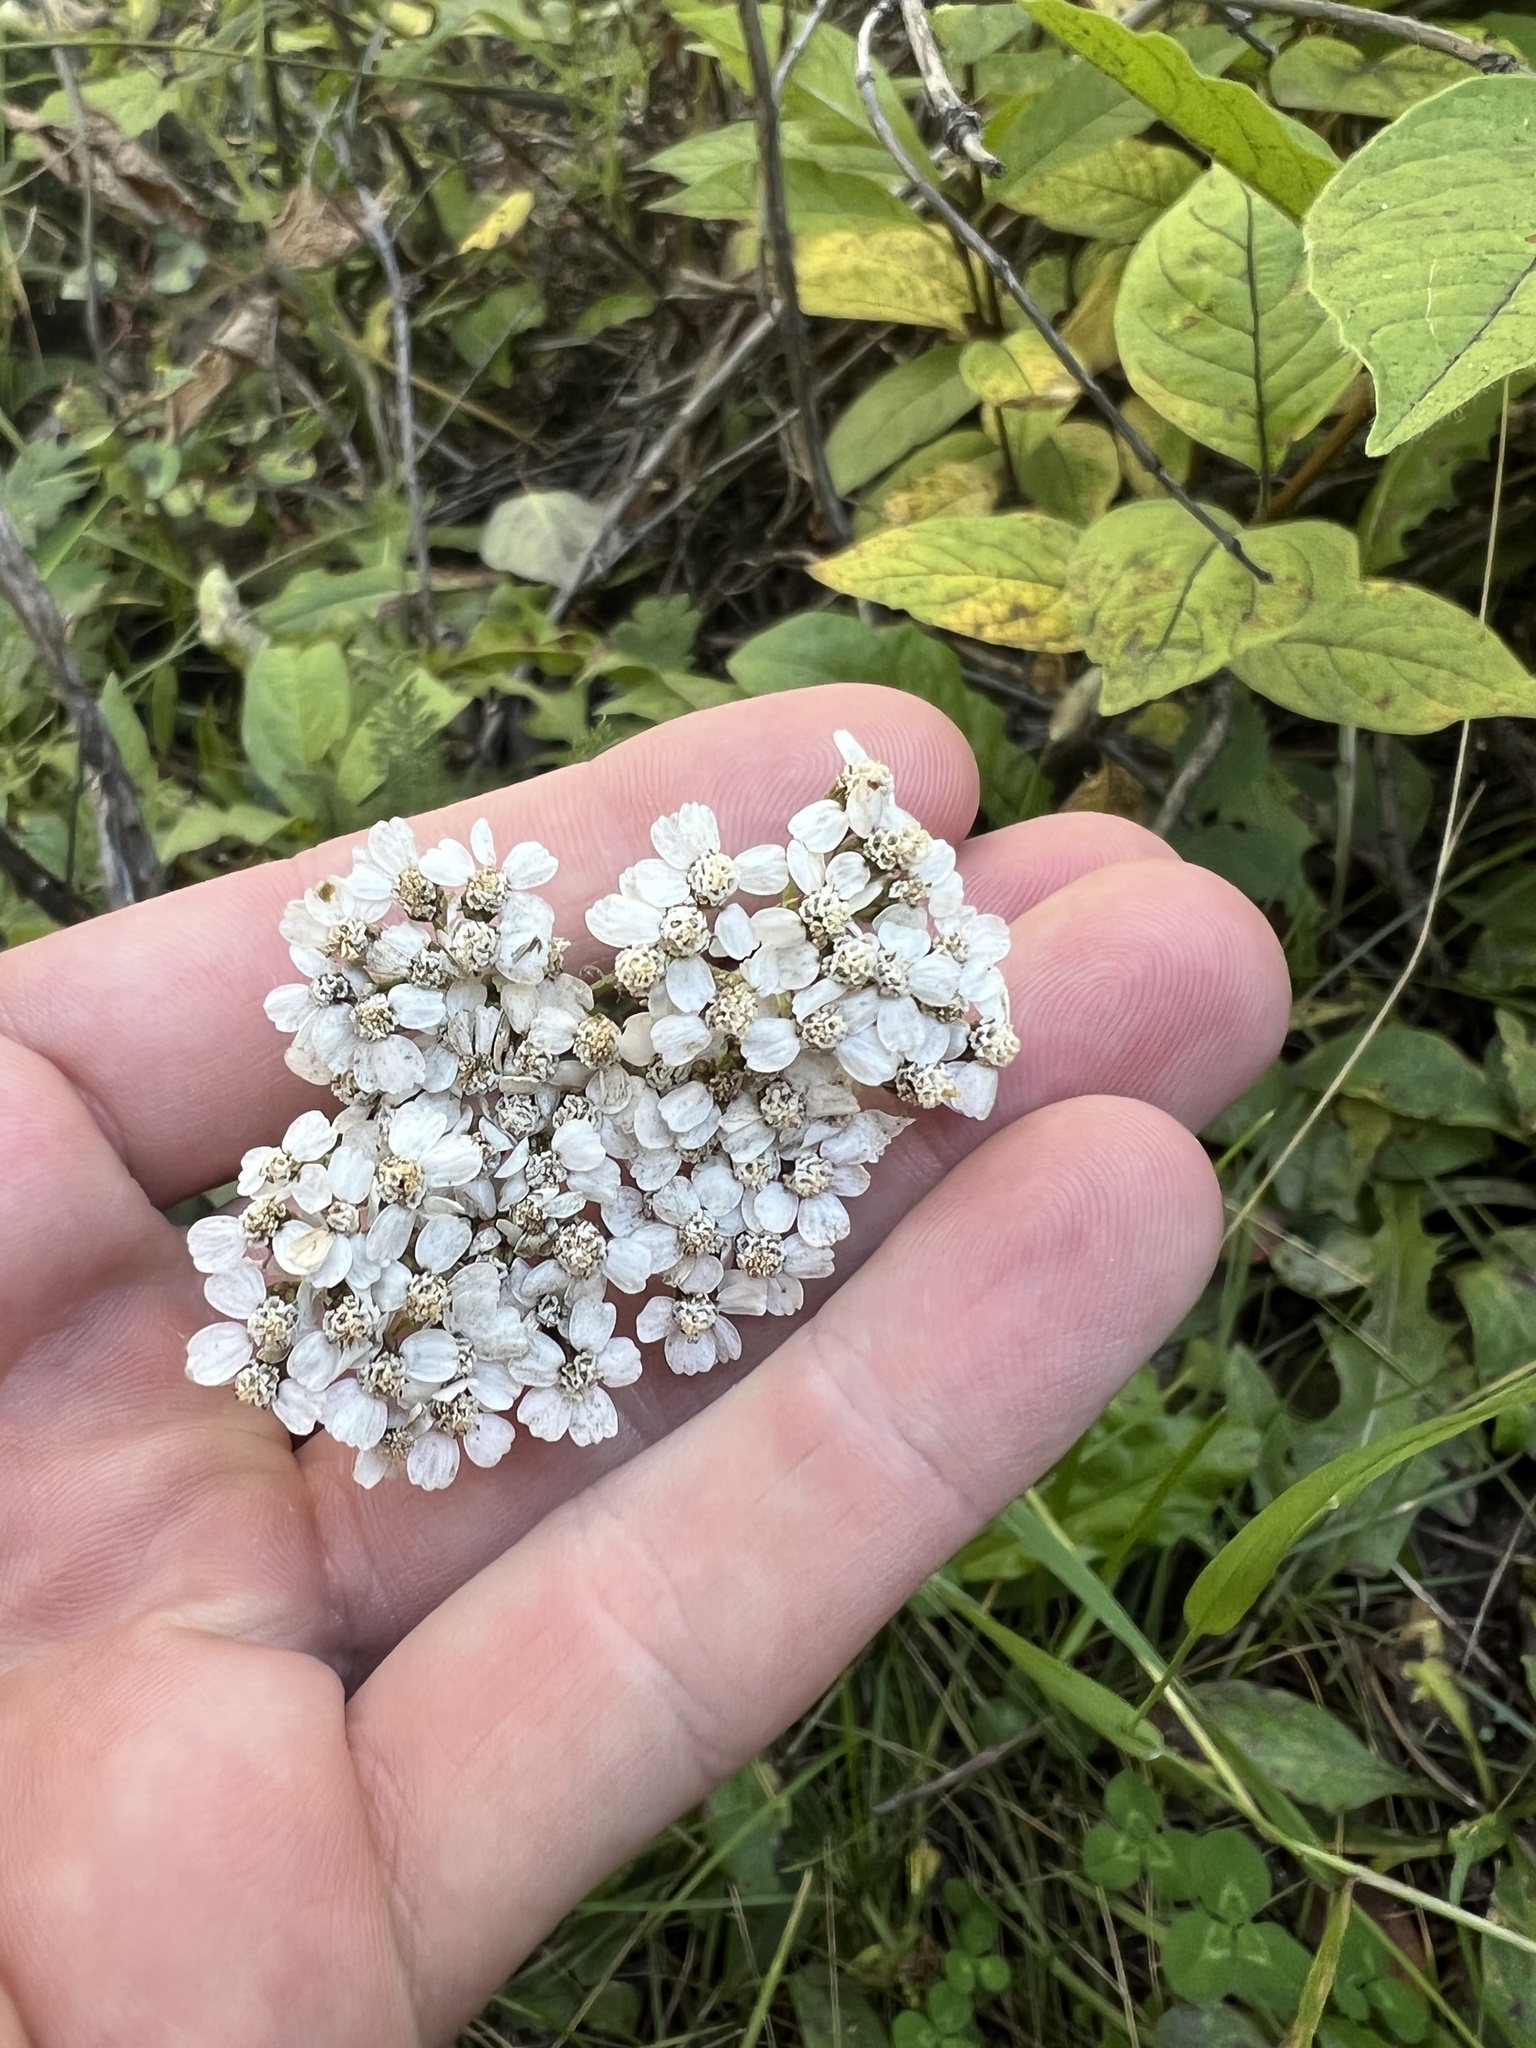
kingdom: Plantae
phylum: Tracheophyta
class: Magnoliopsida
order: Asterales
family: Asteraceae
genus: Achillea
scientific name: Achillea millefolium
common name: Yarrow
